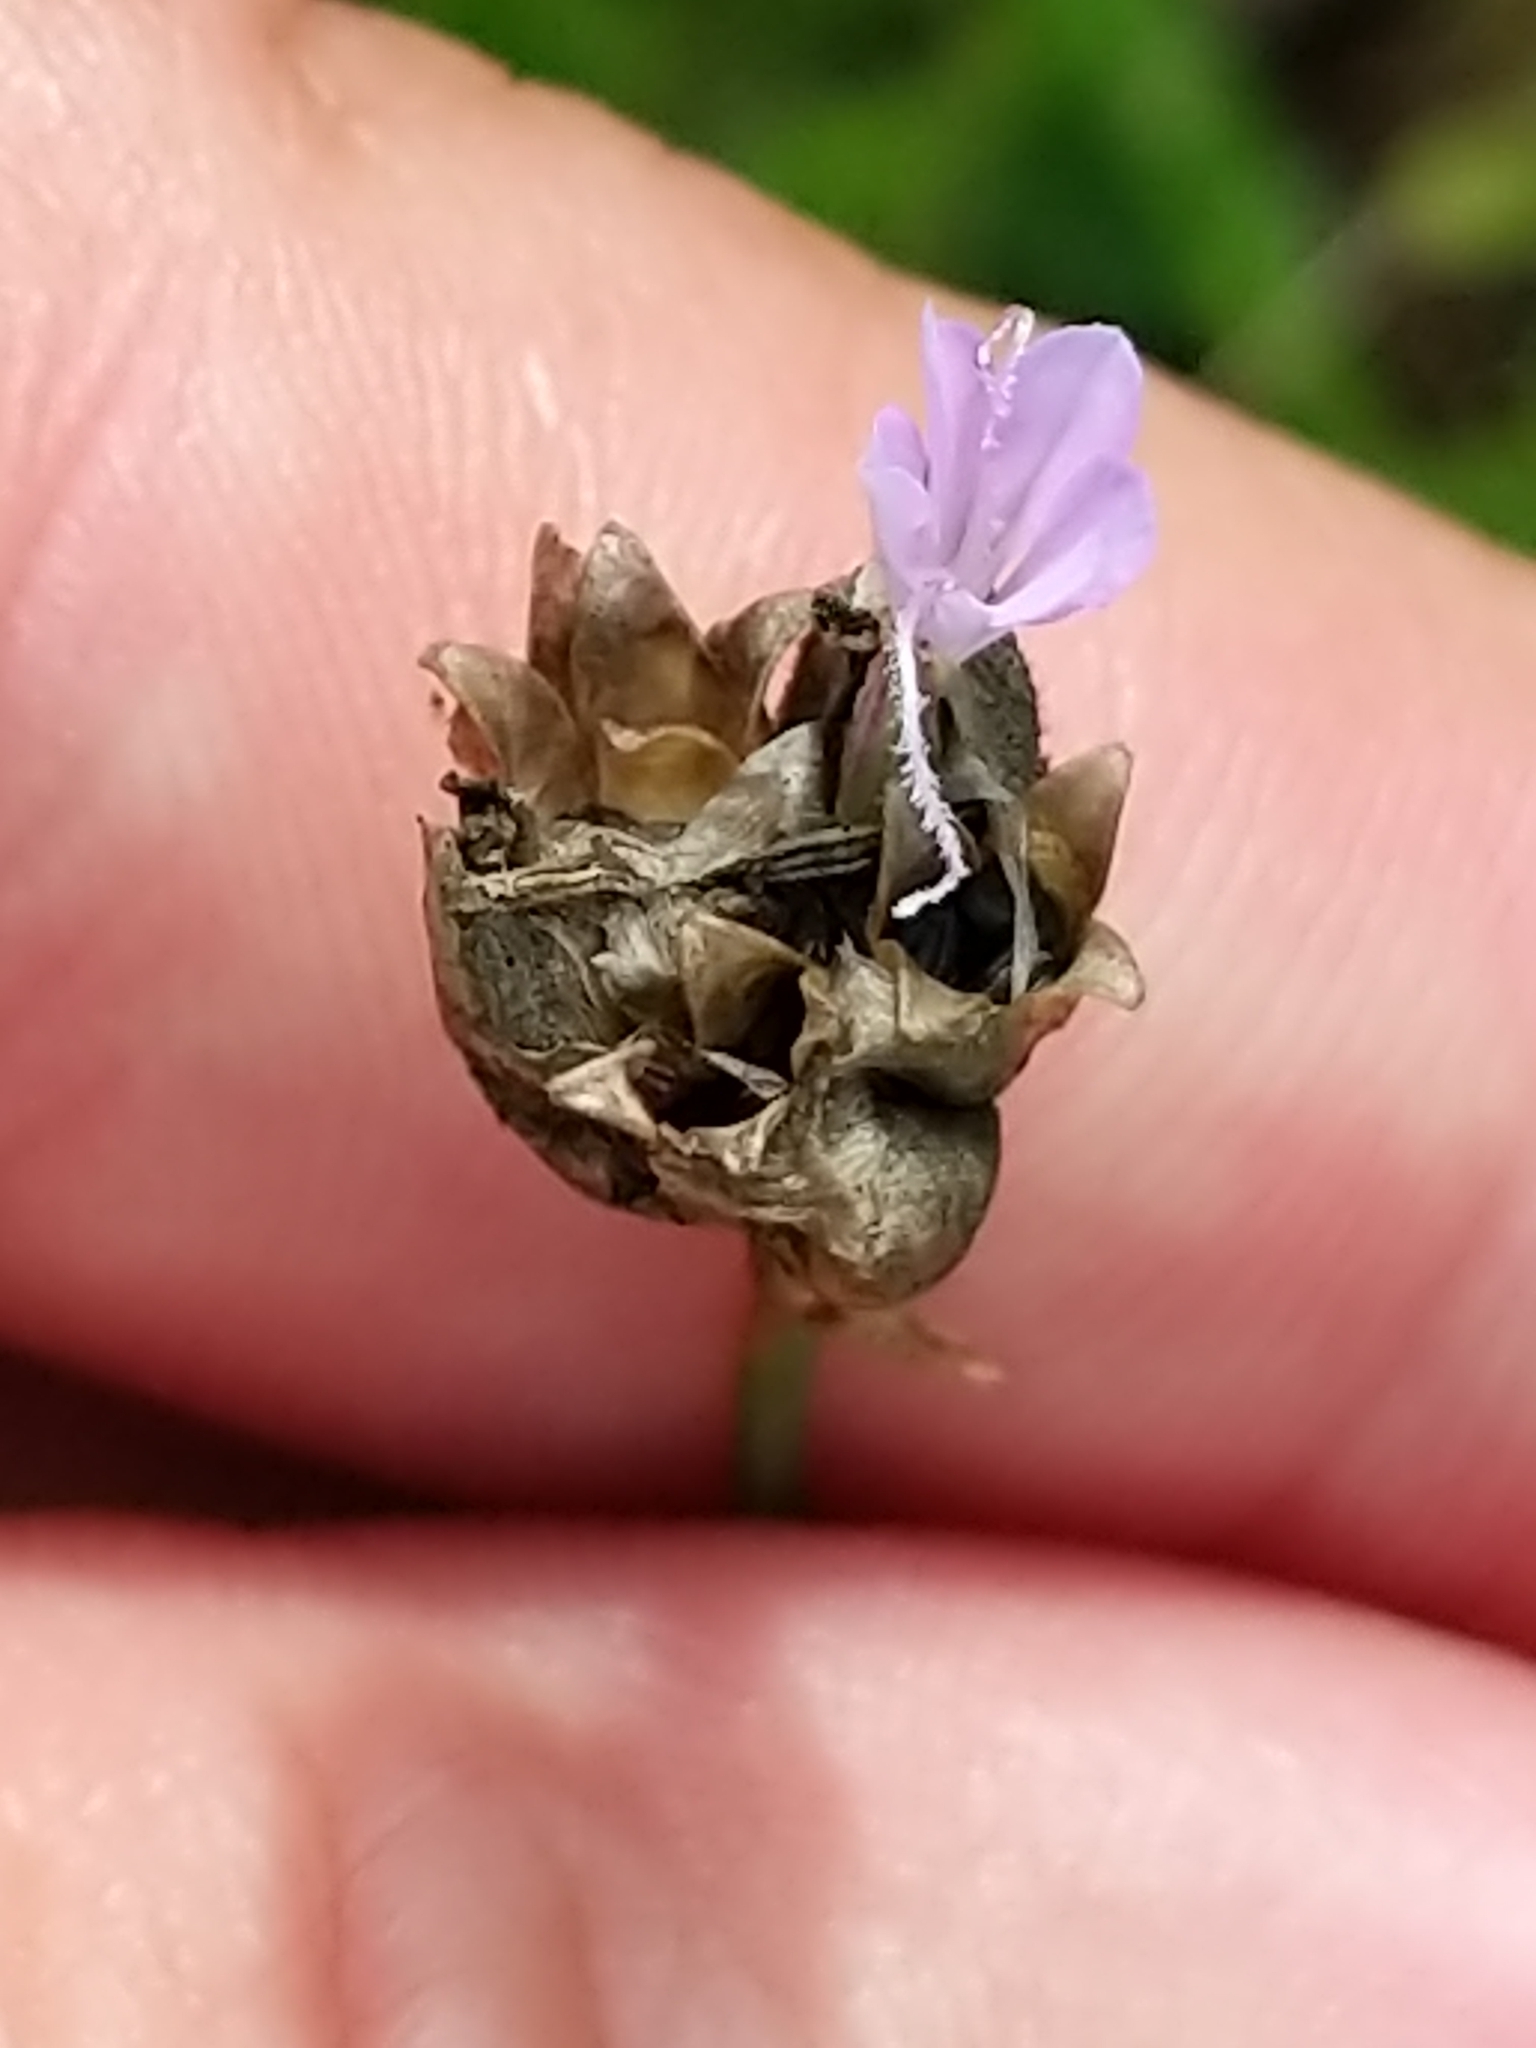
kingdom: Plantae
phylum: Tracheophyta
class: Magnoliopsida
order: Caryophyllales
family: Caryophyllaceae
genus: Petrorhagia
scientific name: Petrorhagia prolifera
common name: Proliferous pink
